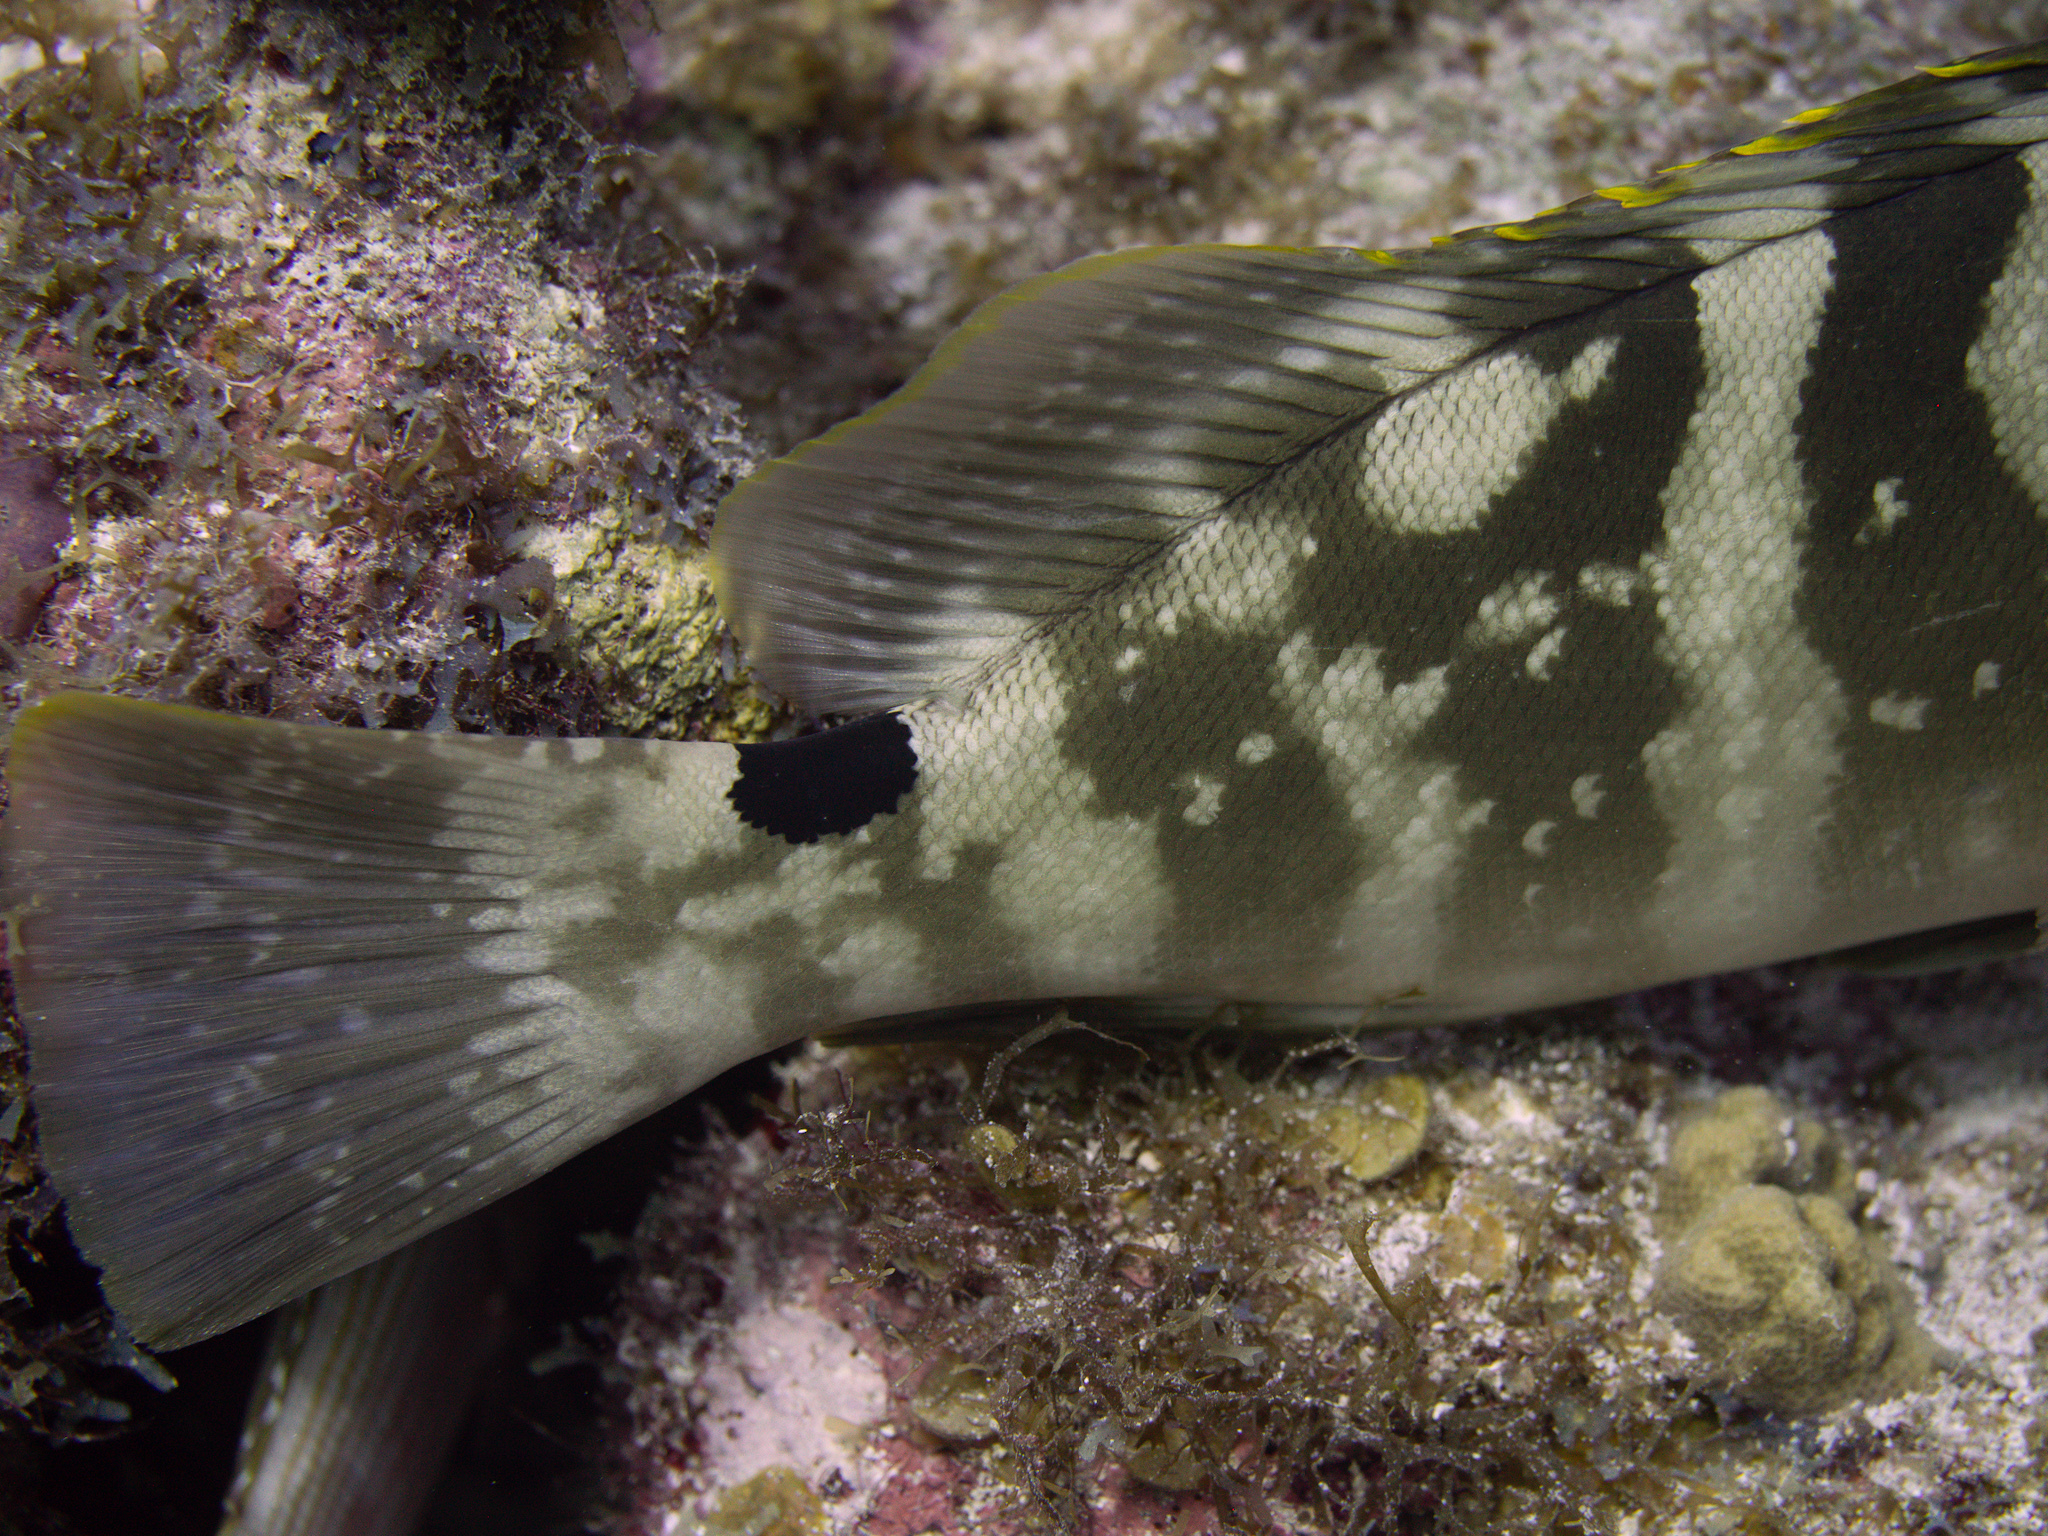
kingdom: Animalia
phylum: Chordata
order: Perciformes
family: Serranidae
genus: Epinephelus
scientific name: Epinephelus striatus
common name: Nassau grouper
